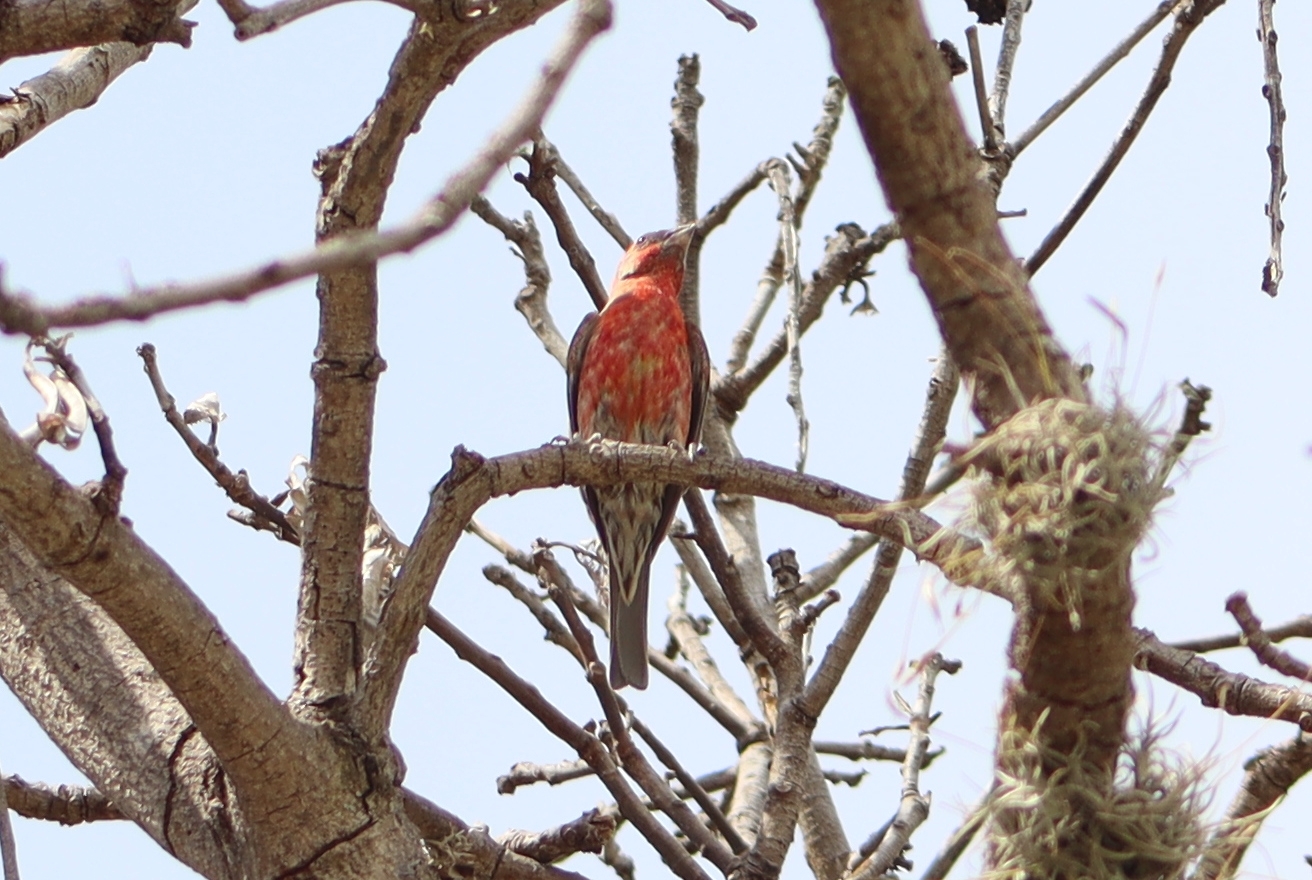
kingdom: Animalia
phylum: Chordata
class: Aves
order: Passeriformes
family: Fringillidae
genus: Haemorhous
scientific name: Haemorhous mexicanus
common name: House finch
